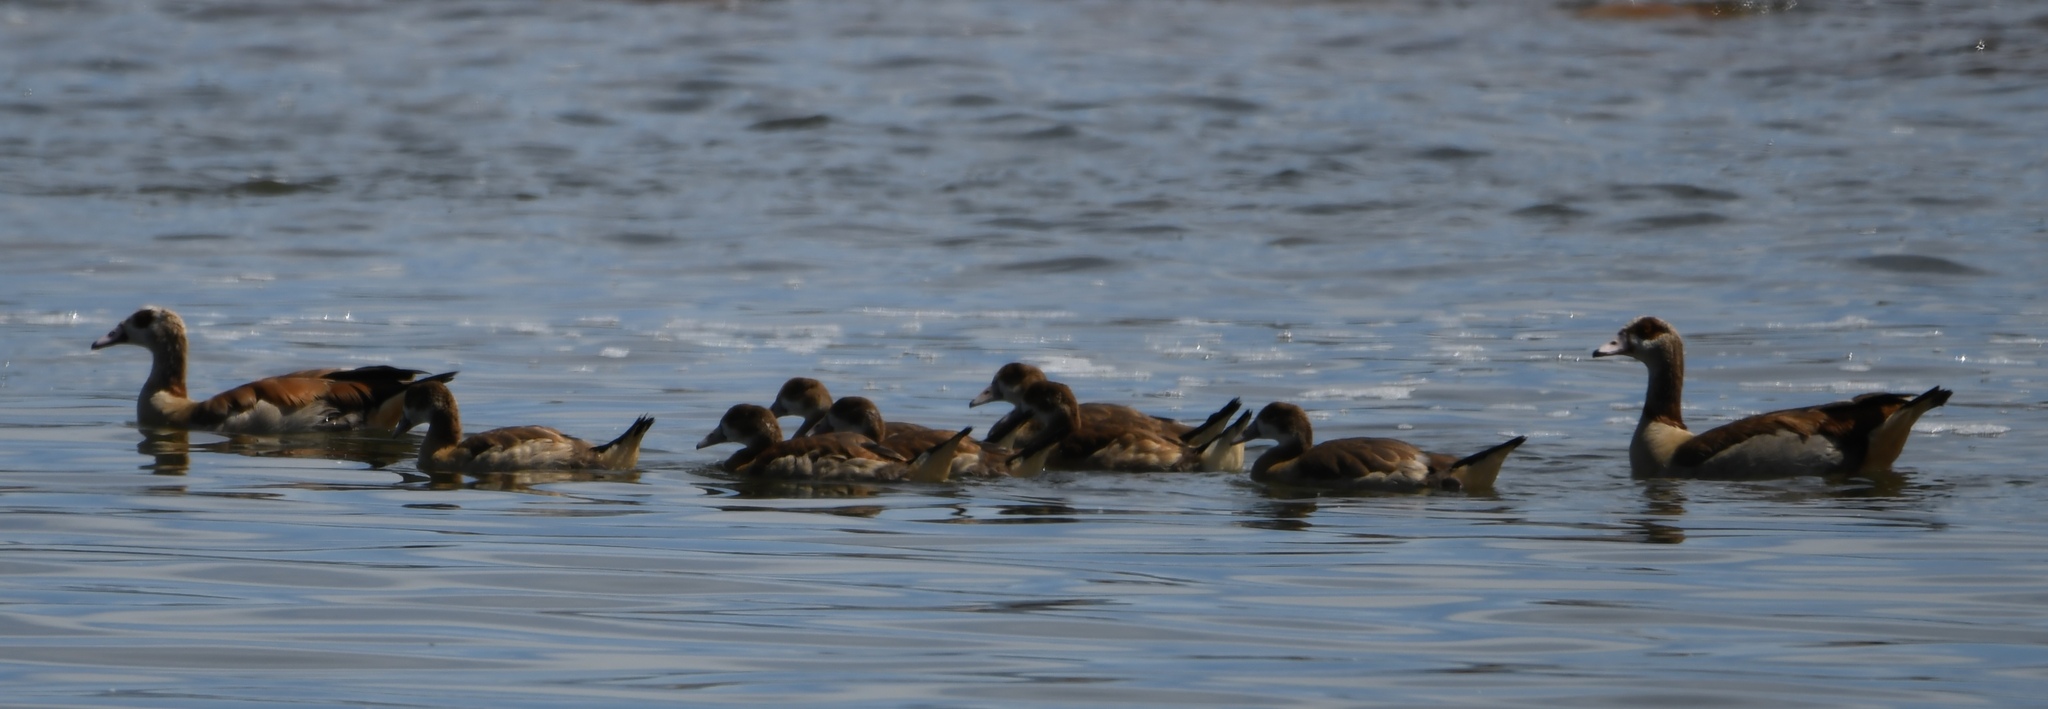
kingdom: Animalia
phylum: Chordata
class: Aves
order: Anseriformes
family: Anatidae
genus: Alopochen
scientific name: Alopochen aegyptiaca
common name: Egyptian goose
